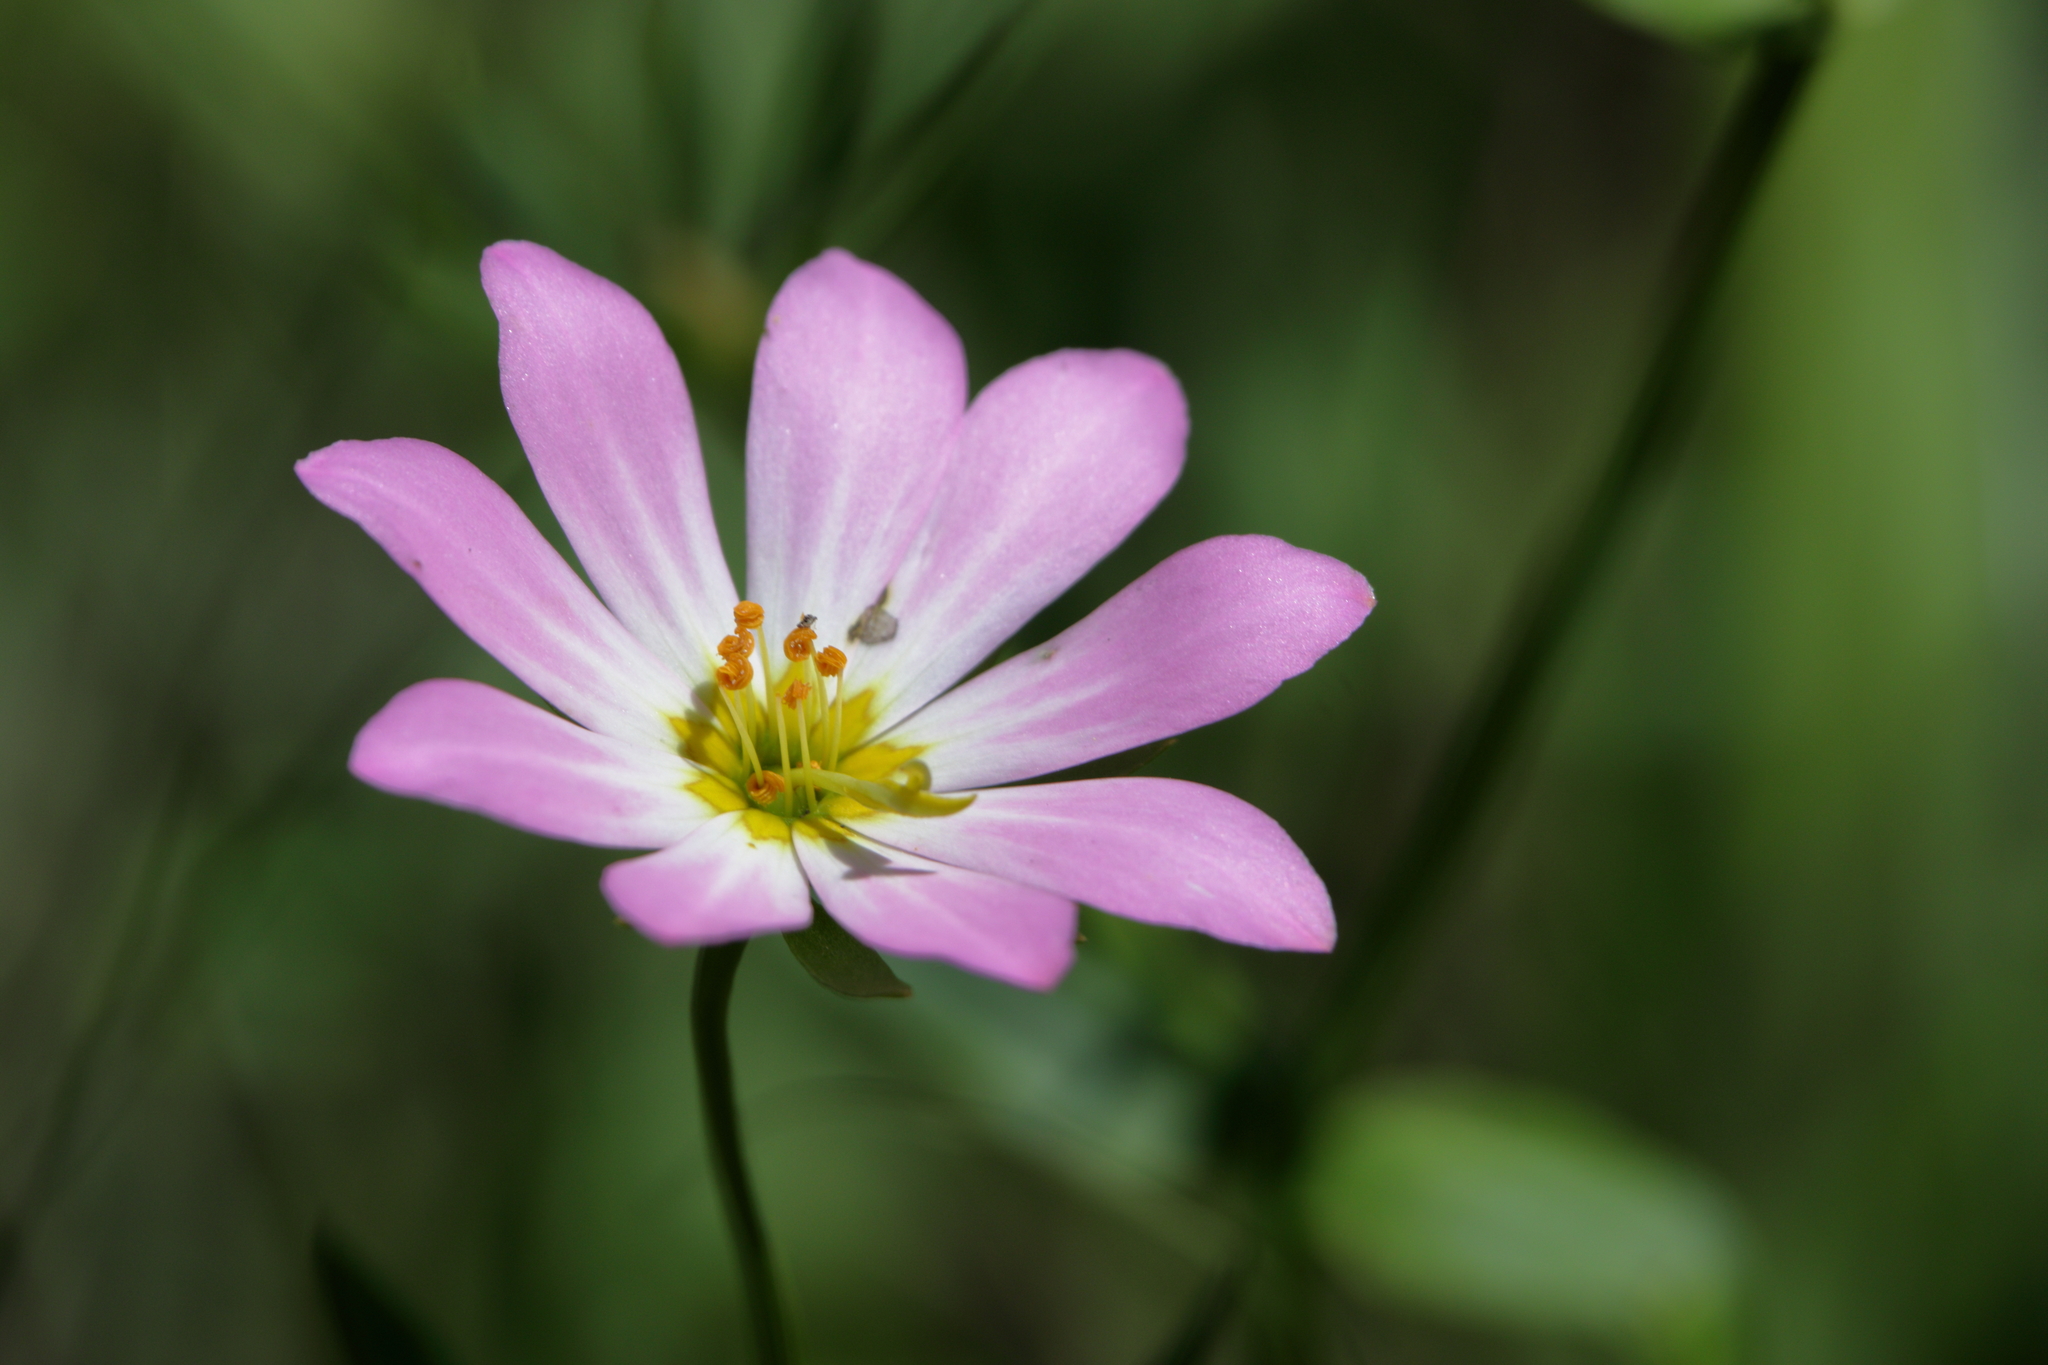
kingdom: Plantae
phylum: Tracheophyta
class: Magnoliopsida
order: Gentianales
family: Gentianaceae
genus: Sabatia
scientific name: Sabatia foliosa
